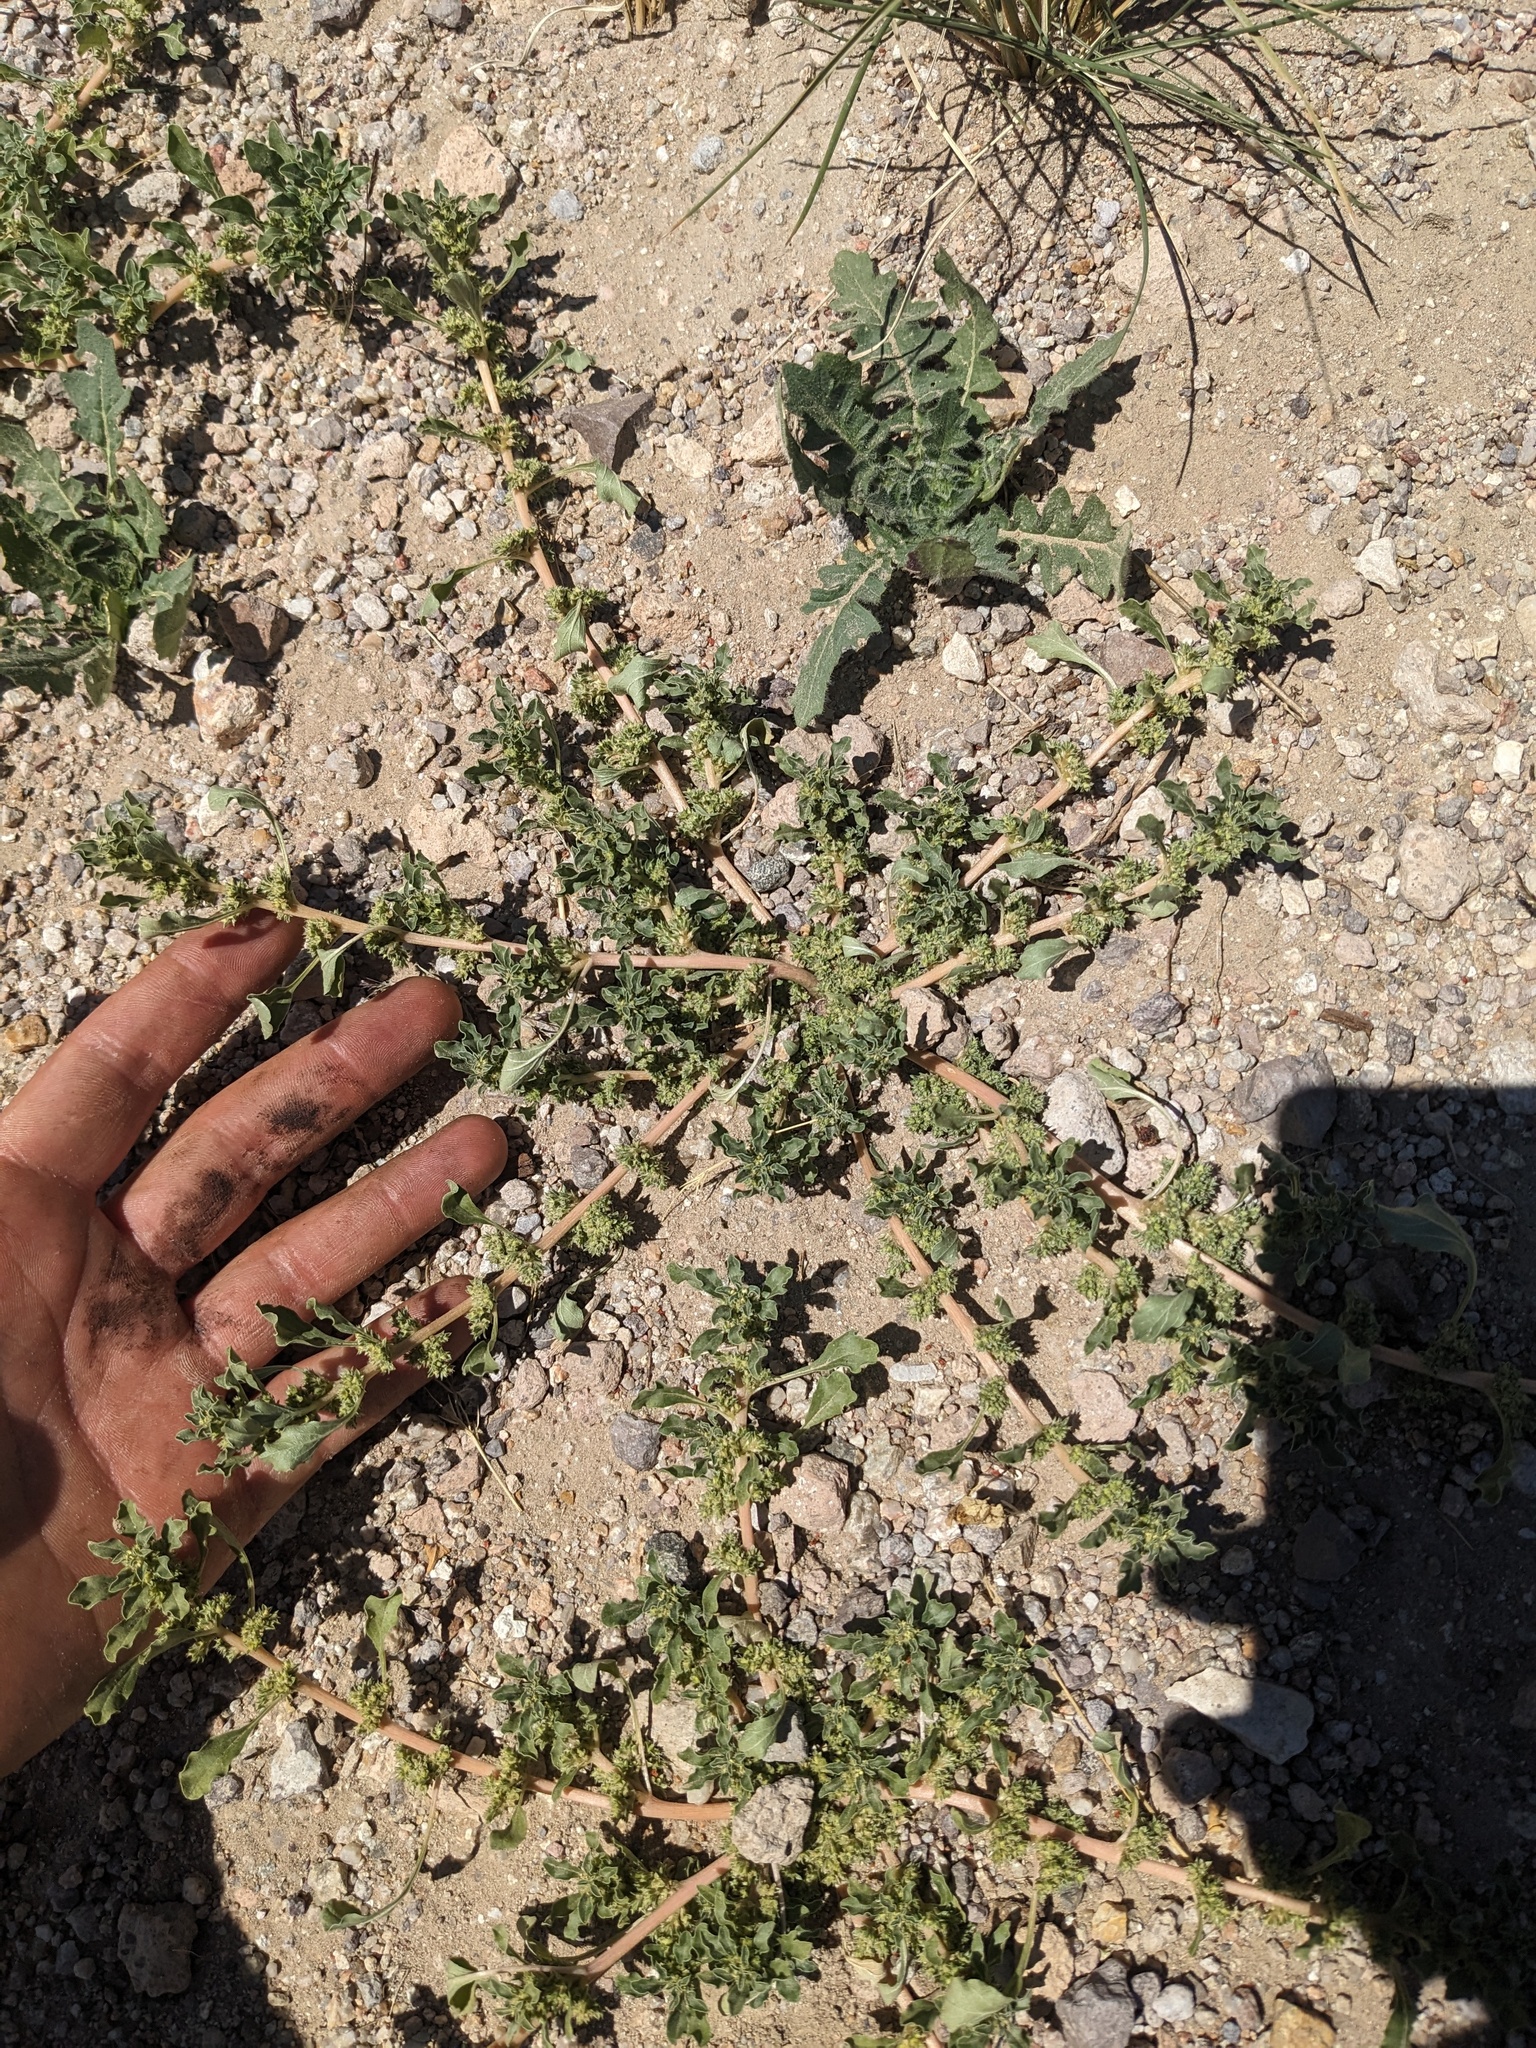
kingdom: Plantae
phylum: Tracheophyta
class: Magnoliopsida
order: Caryophyllales
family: Amaranthaceae
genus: Amaranthus
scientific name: Amaranthus blitoides
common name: Prostrate pigweed
